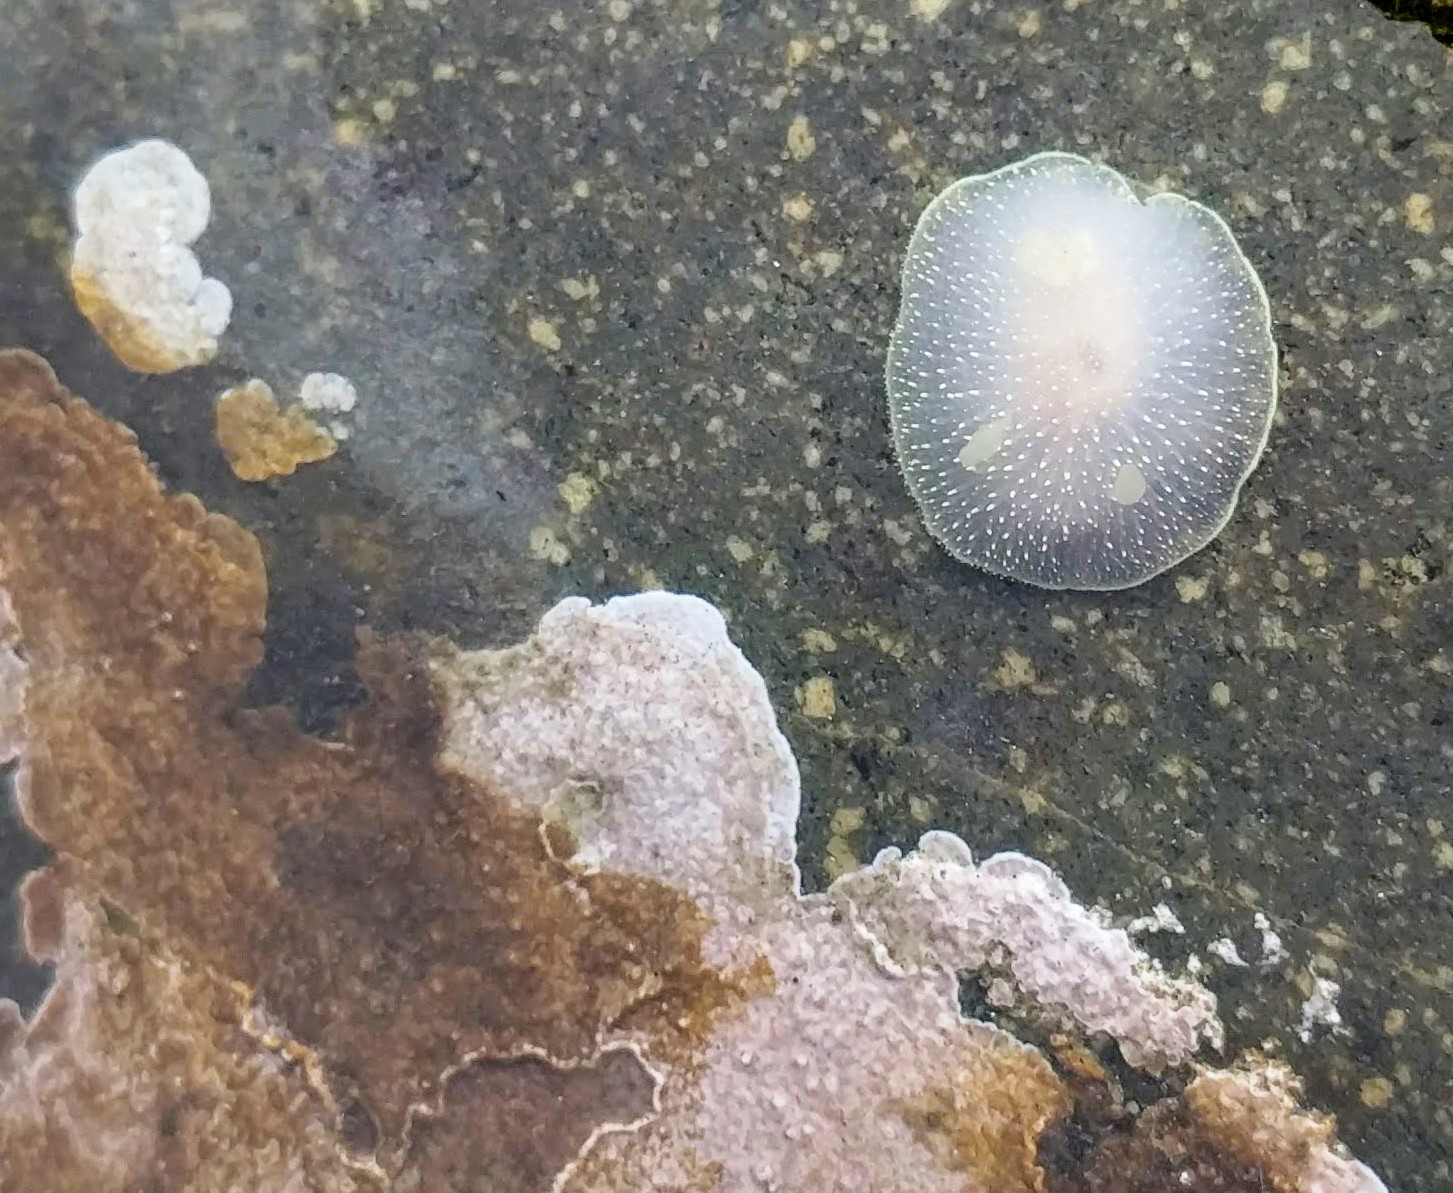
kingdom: Animalia
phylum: Mollusca
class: Gastropoda
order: Nudibranchia
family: Onchidorididae
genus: Acanthodoris
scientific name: Acanthodoris hudsoni
